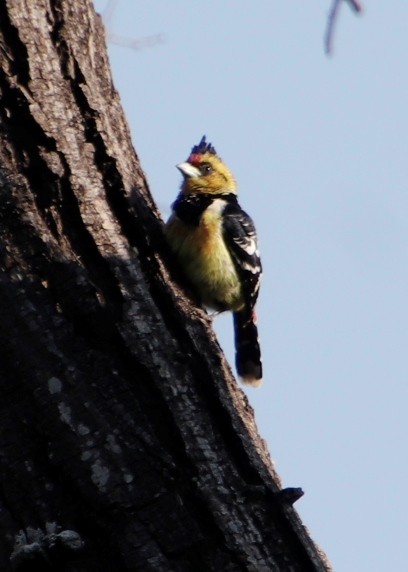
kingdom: Animalia
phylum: Chordata
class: Aves
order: Piciformes
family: Lybiidae
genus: Trachyphonus
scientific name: Trachyphonus vaillantii
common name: Crested barbet
